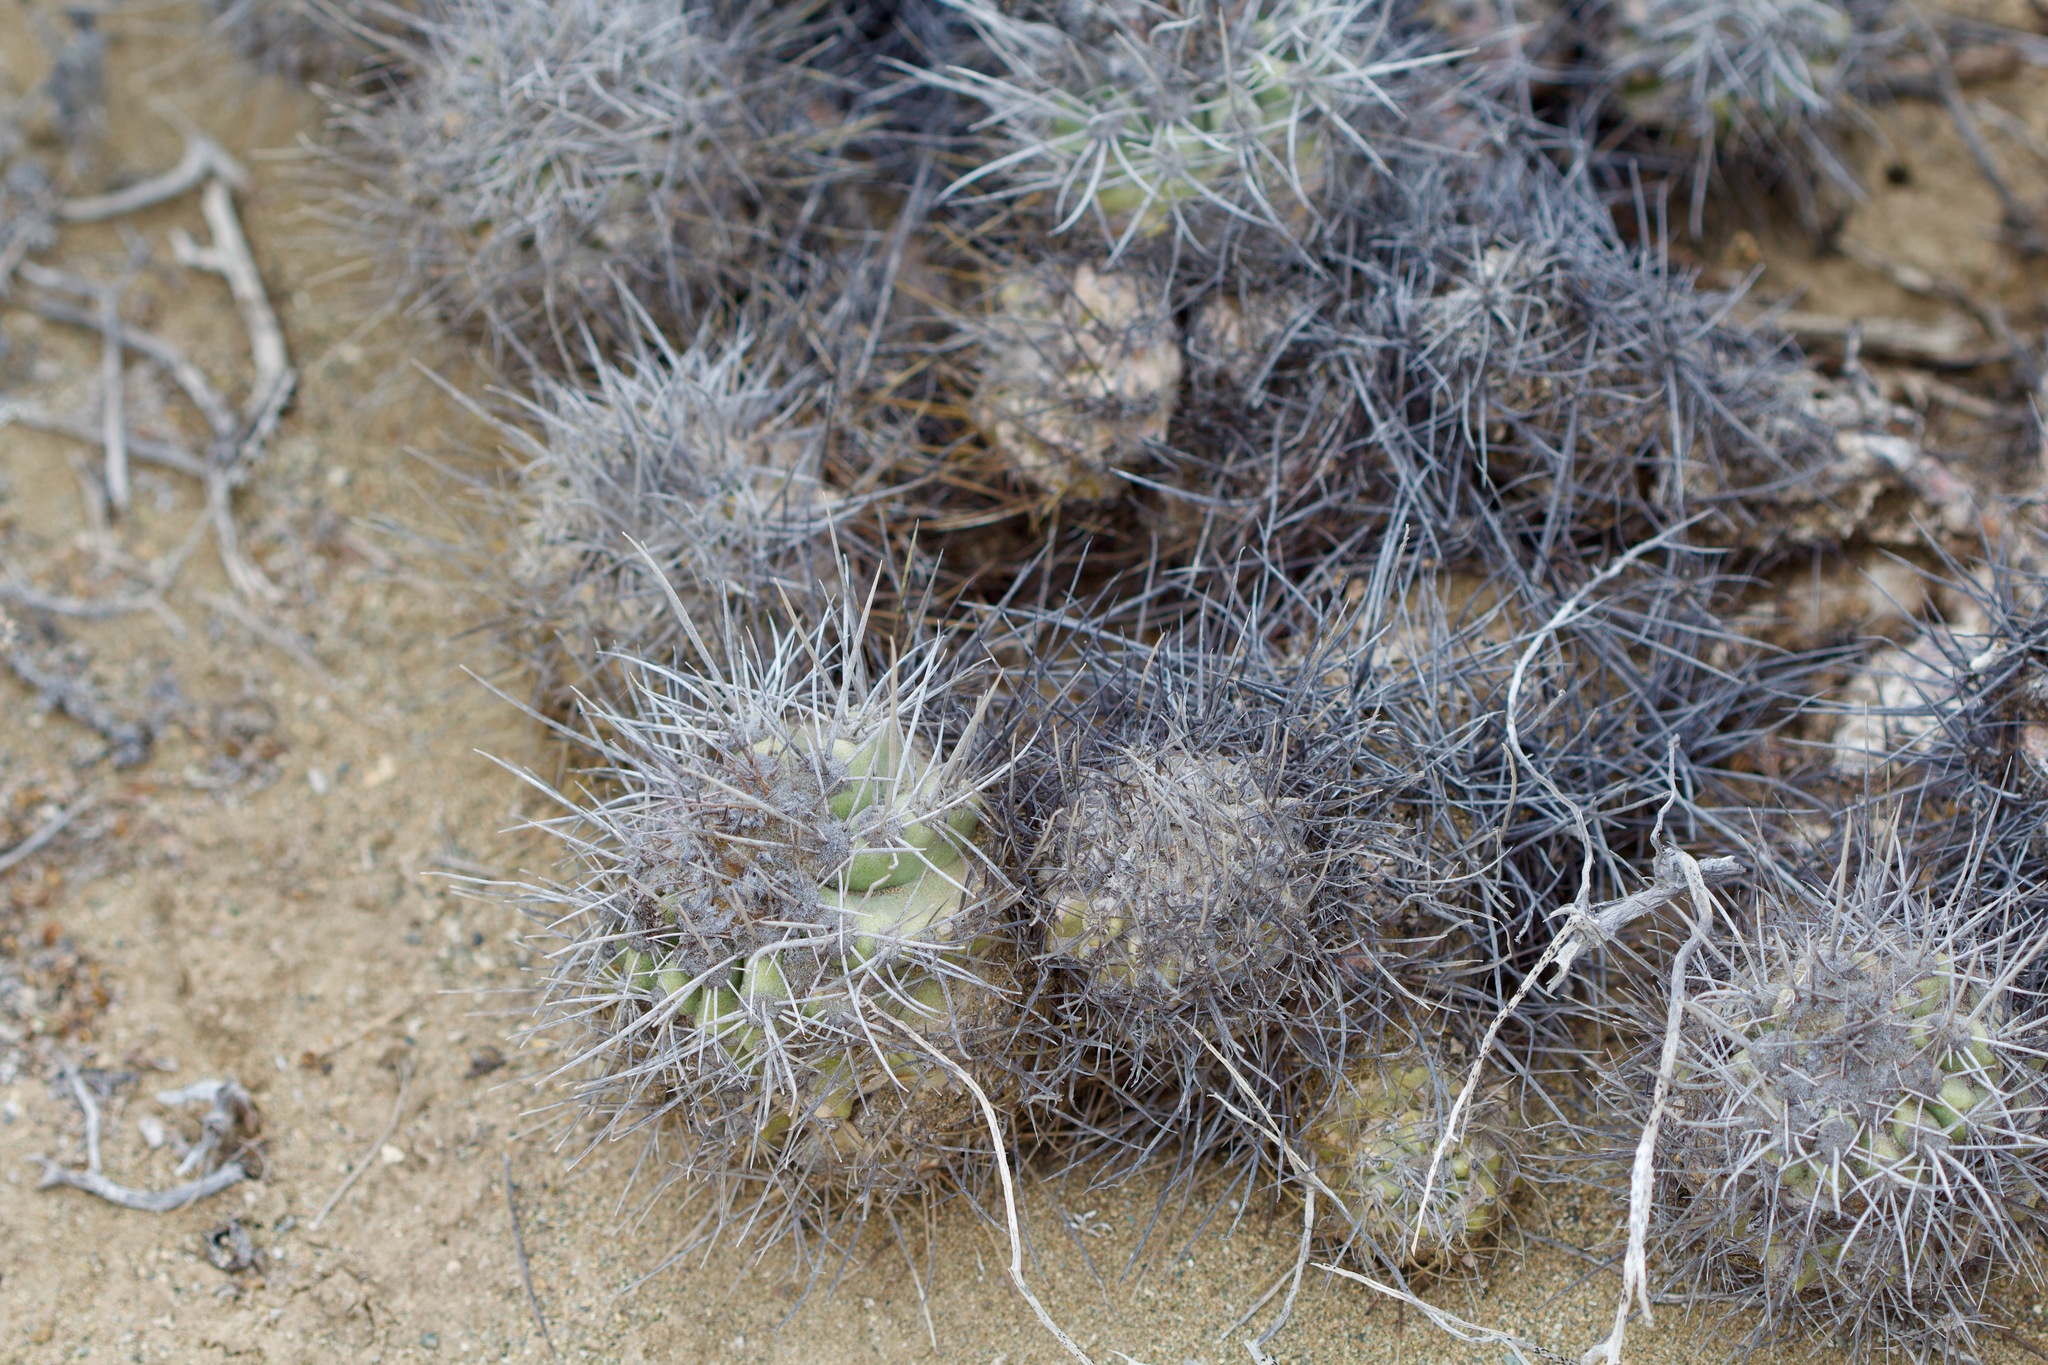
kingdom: Plantae
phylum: Tracheophyta
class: Magnoliopsida
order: Caryophyllales
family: Cactaceae
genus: Copiapoa
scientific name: Copiapoa coquimbana
